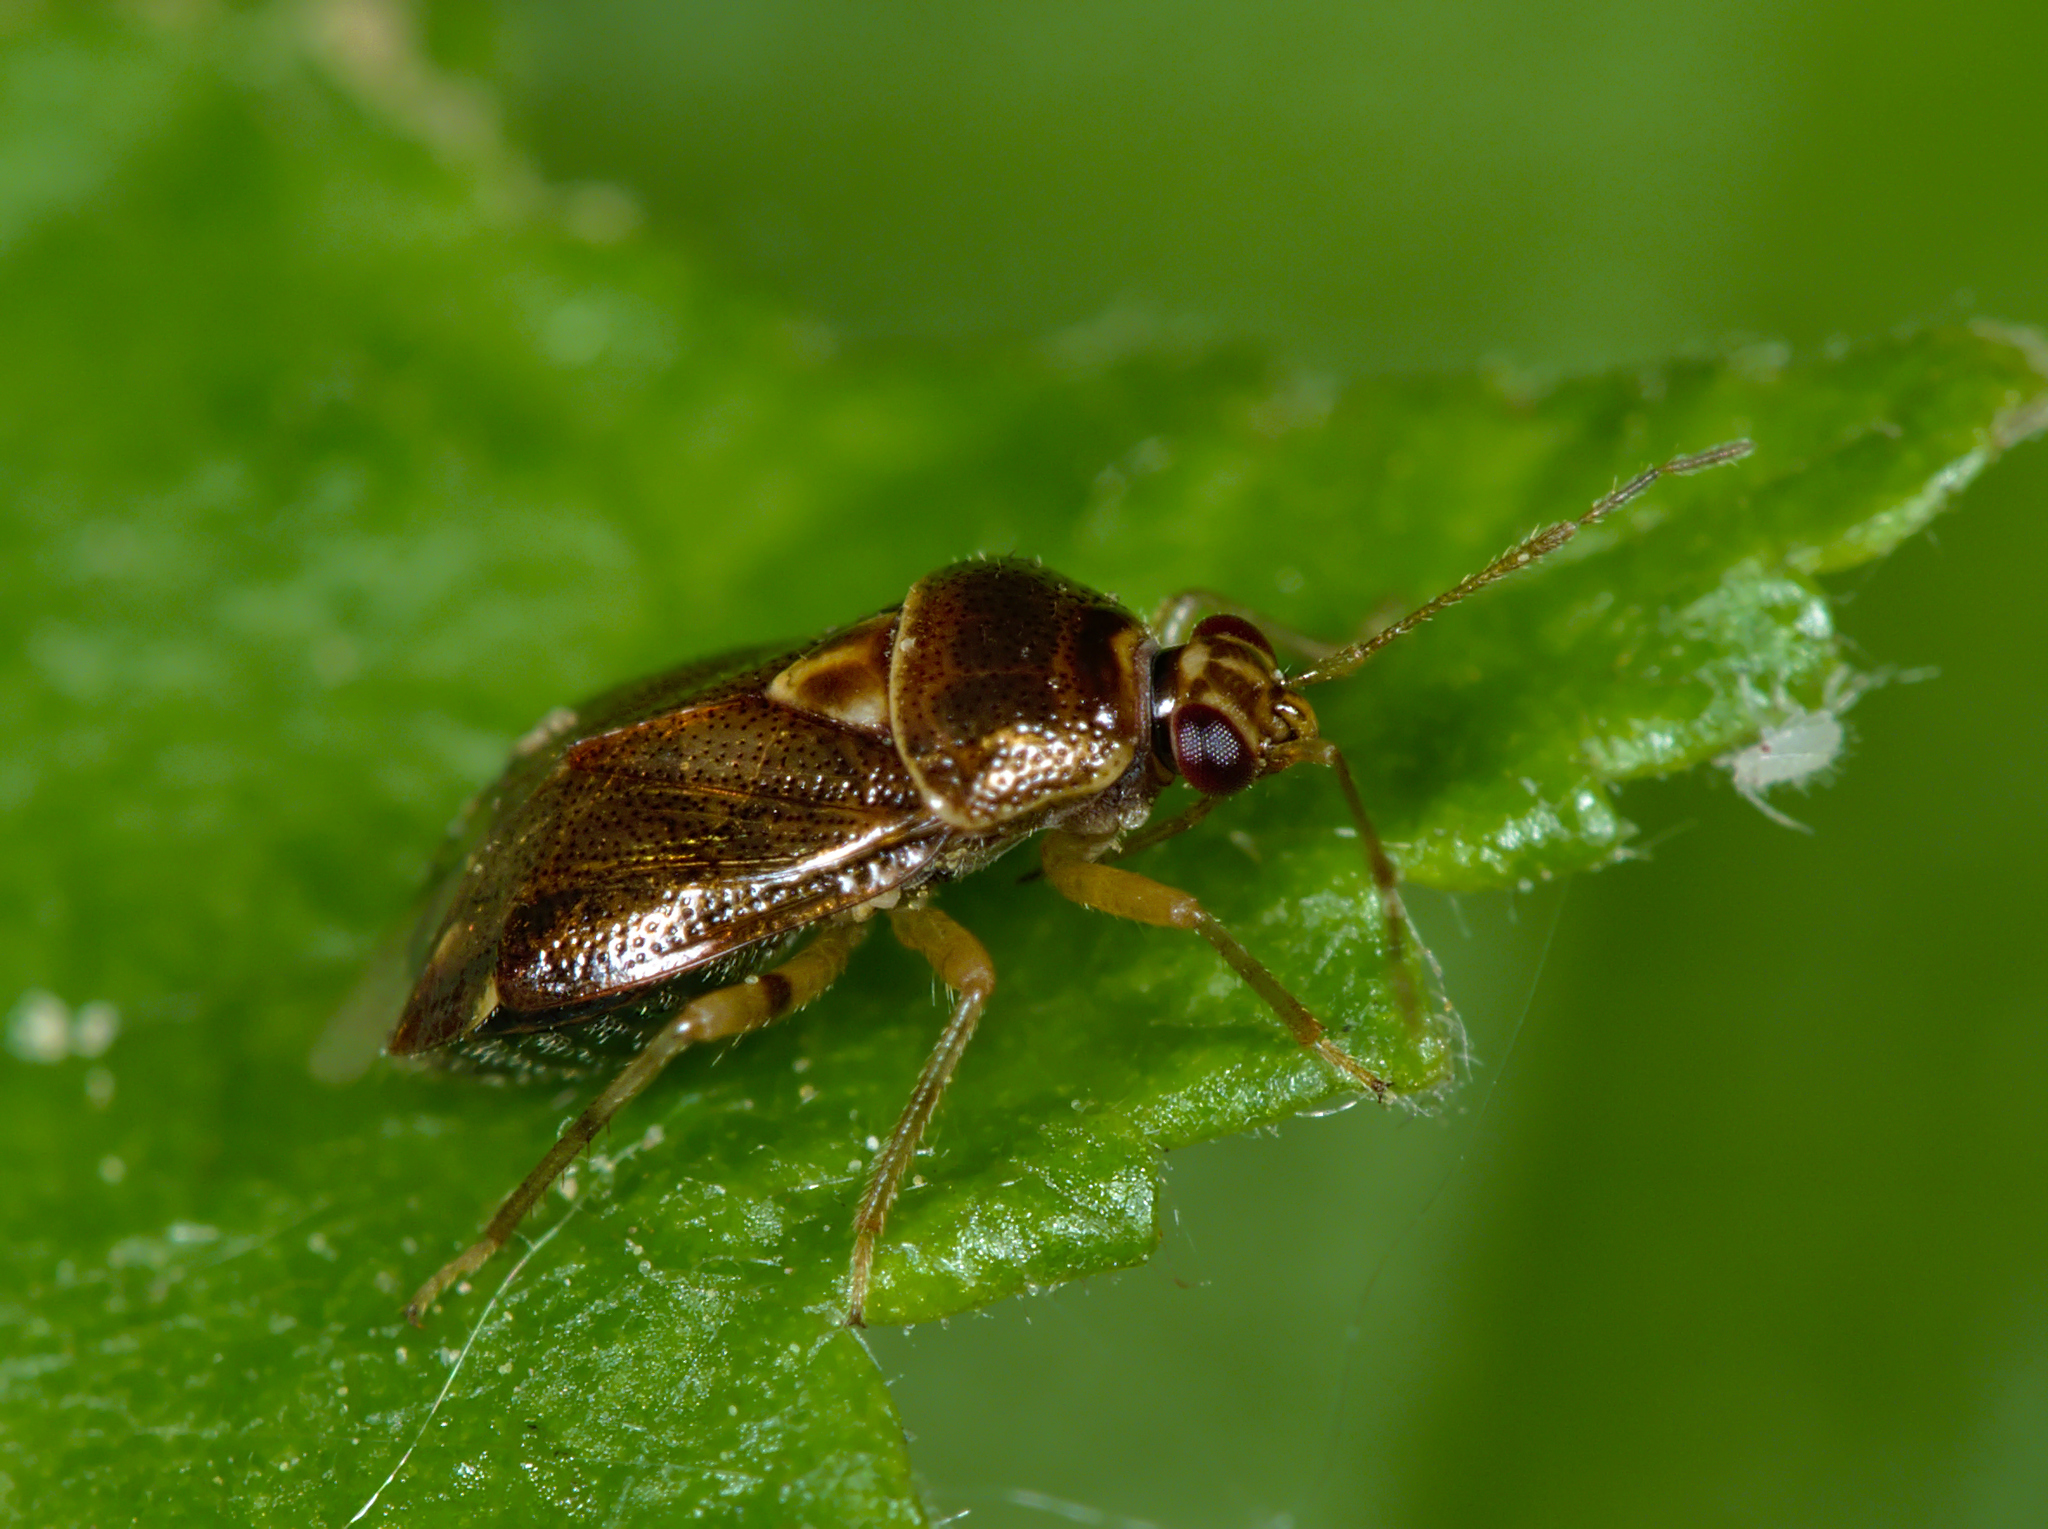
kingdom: Animalia
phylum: Arthropoda
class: Insecta
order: Hemiptera
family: Miridae
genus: Deraeocoris
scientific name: Deraeocoris lutescens
